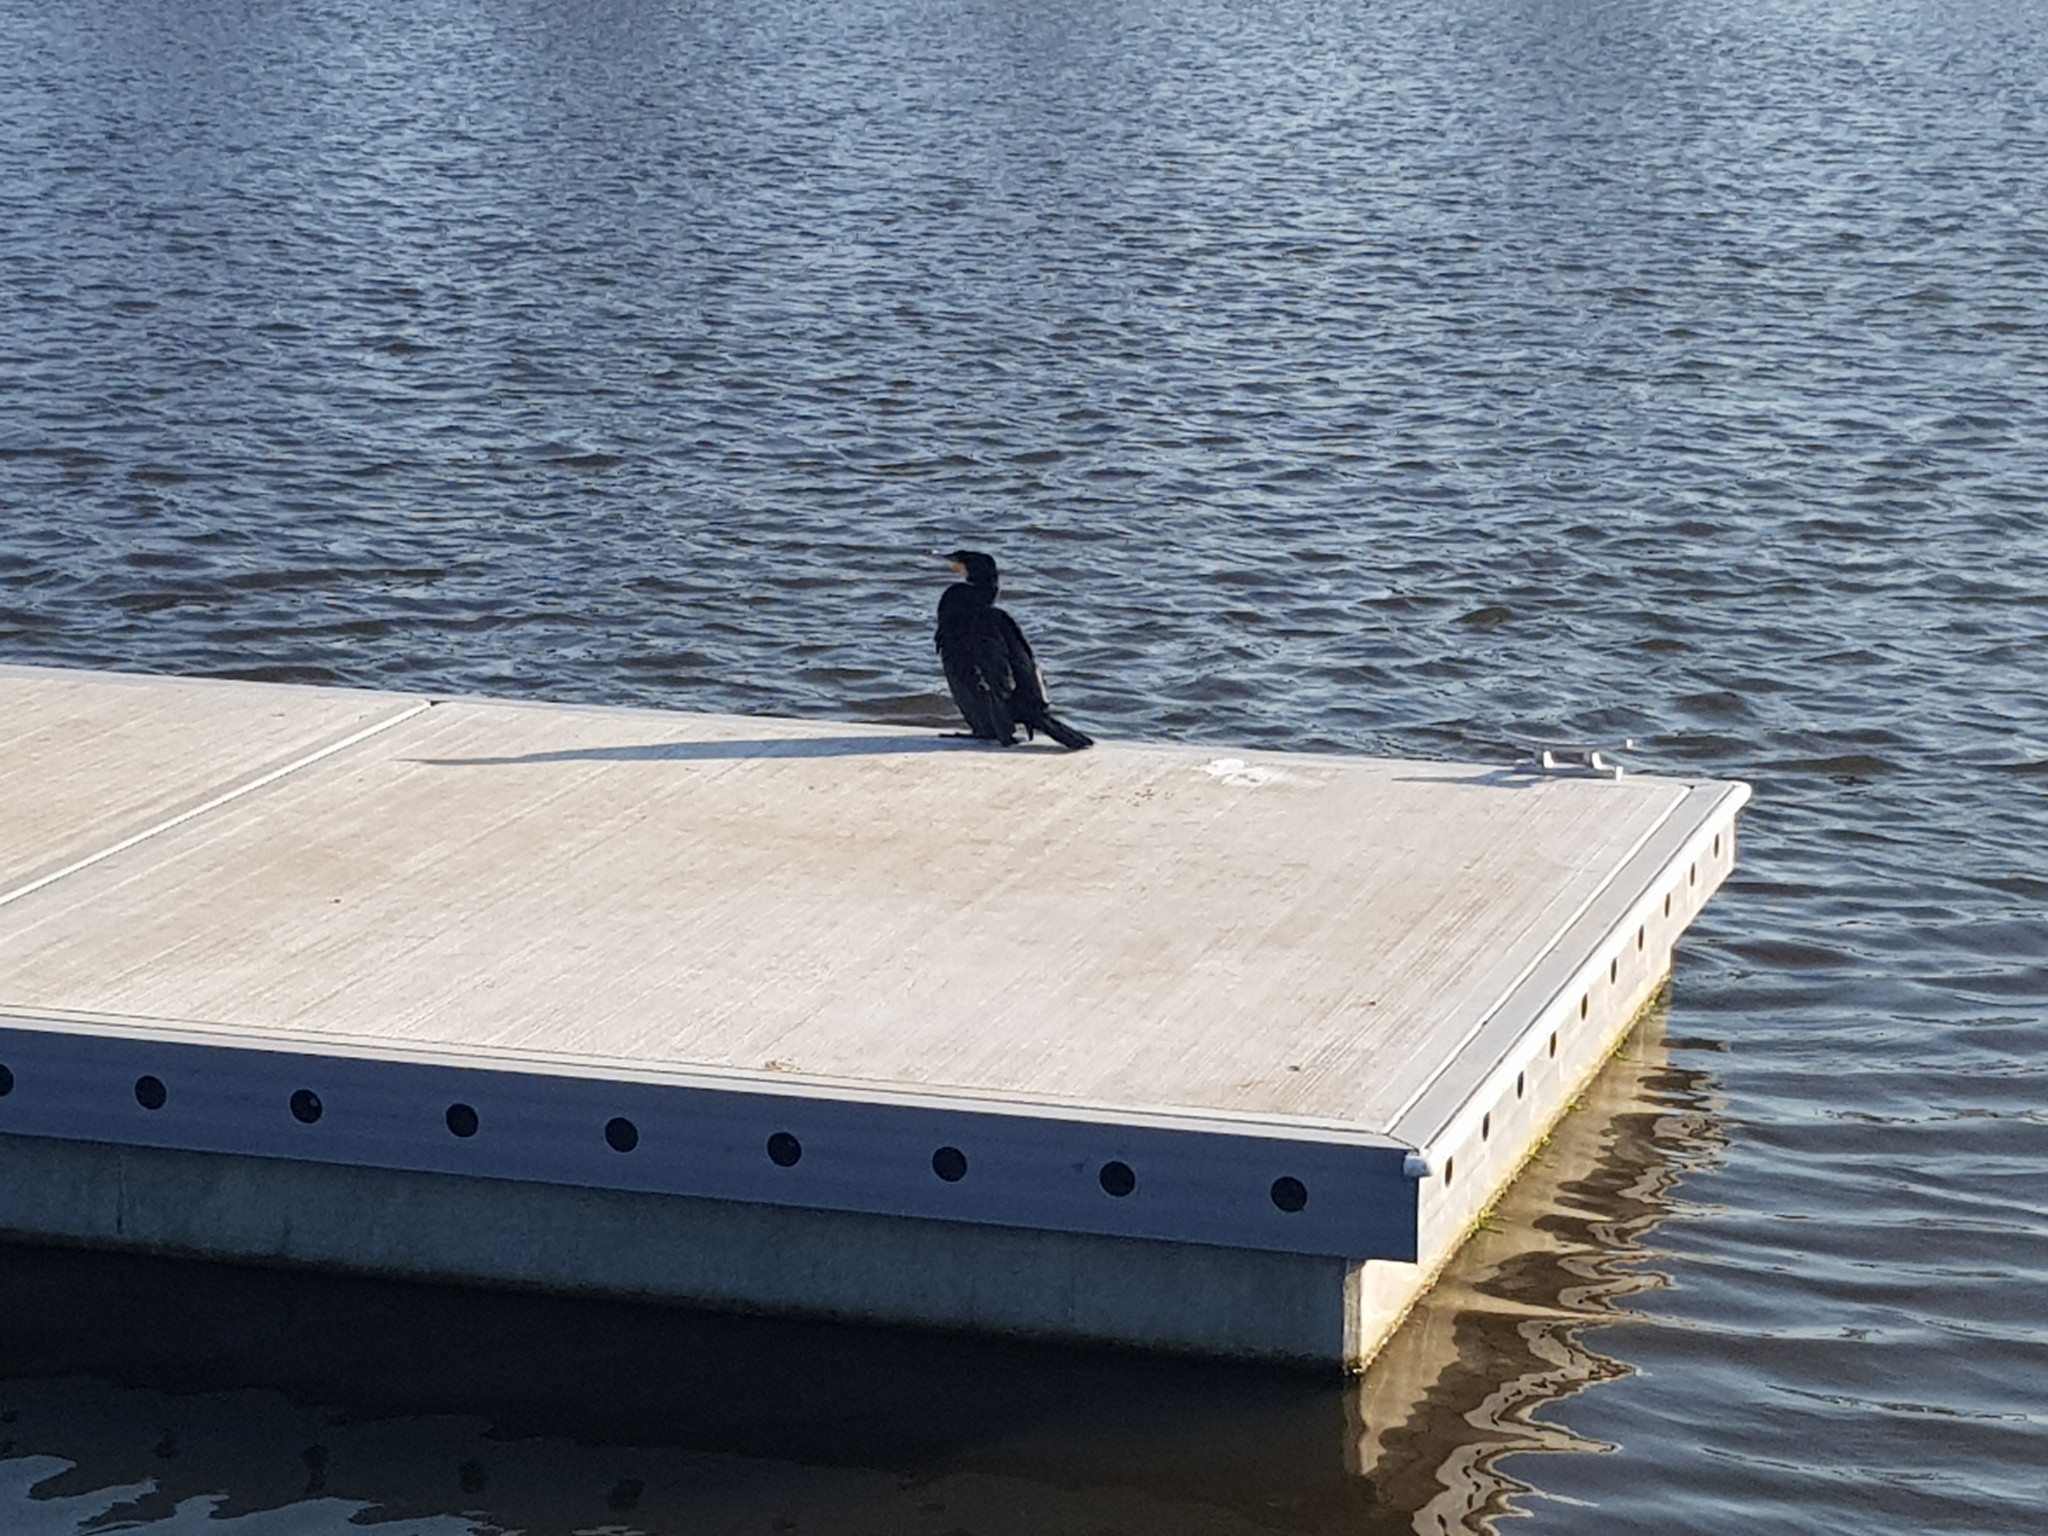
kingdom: Animalia
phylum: Chordata
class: Aves
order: Suliformes
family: Phalacrocoracidae
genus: Phalacrocorax
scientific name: Phalacrocorax carbo
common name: Great cormorant
